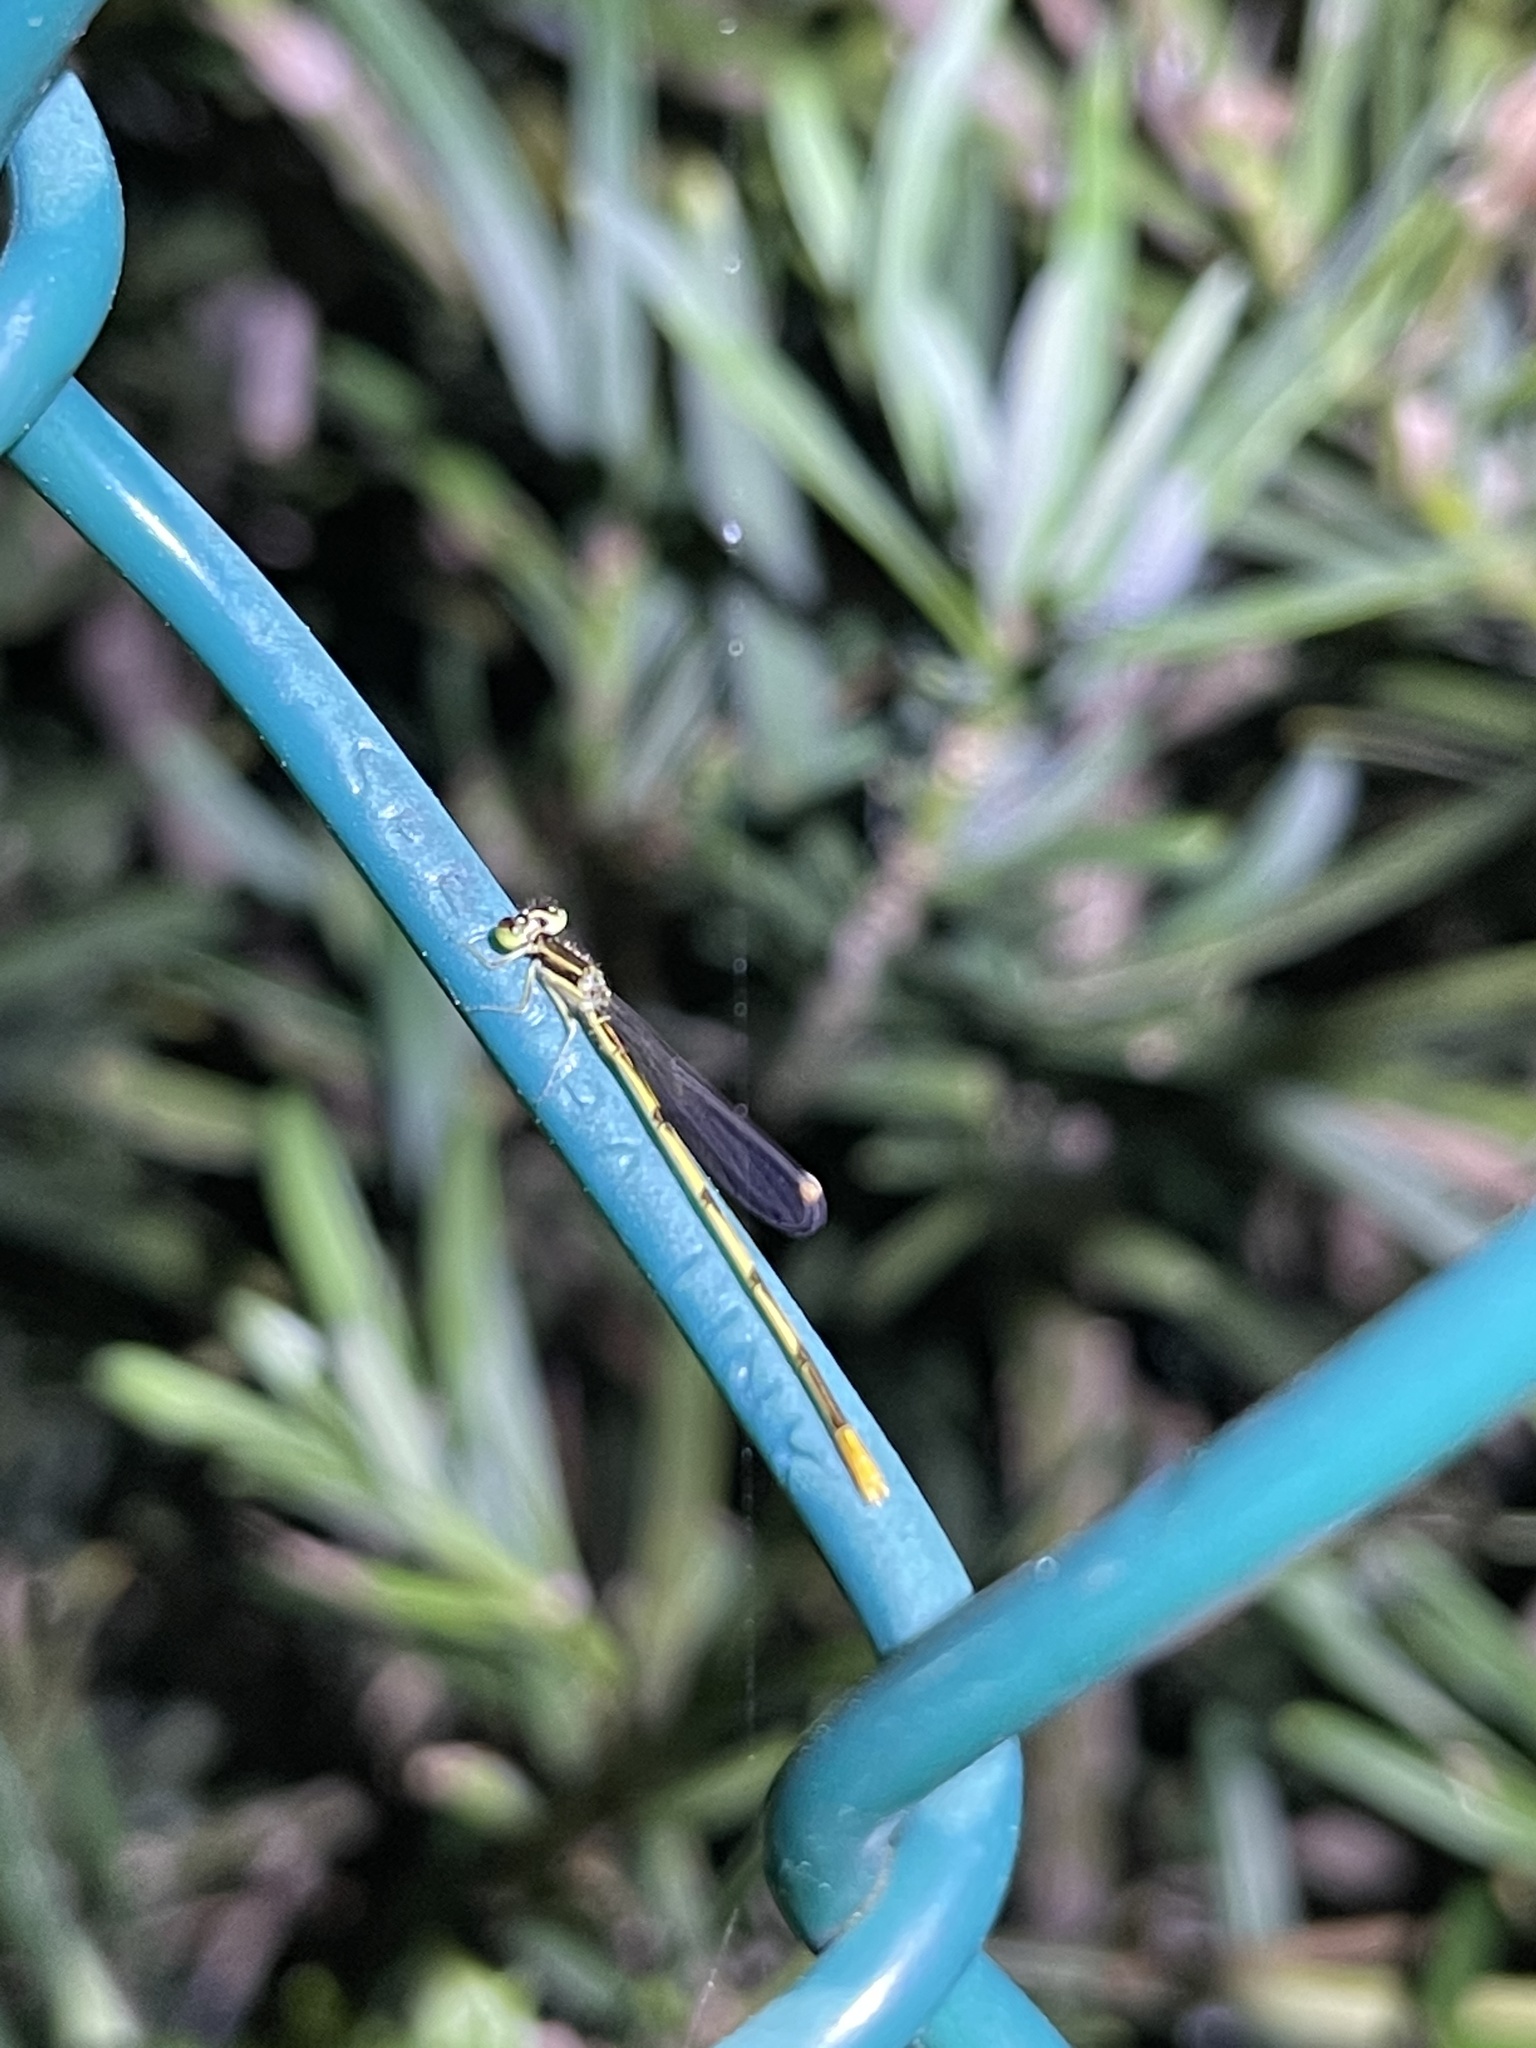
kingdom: Animalia
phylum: Arthropoda
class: Insecta
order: Odonata
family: Coenagrionidae
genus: Ischnura
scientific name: Ischnura hastata
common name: Citrine forktail
